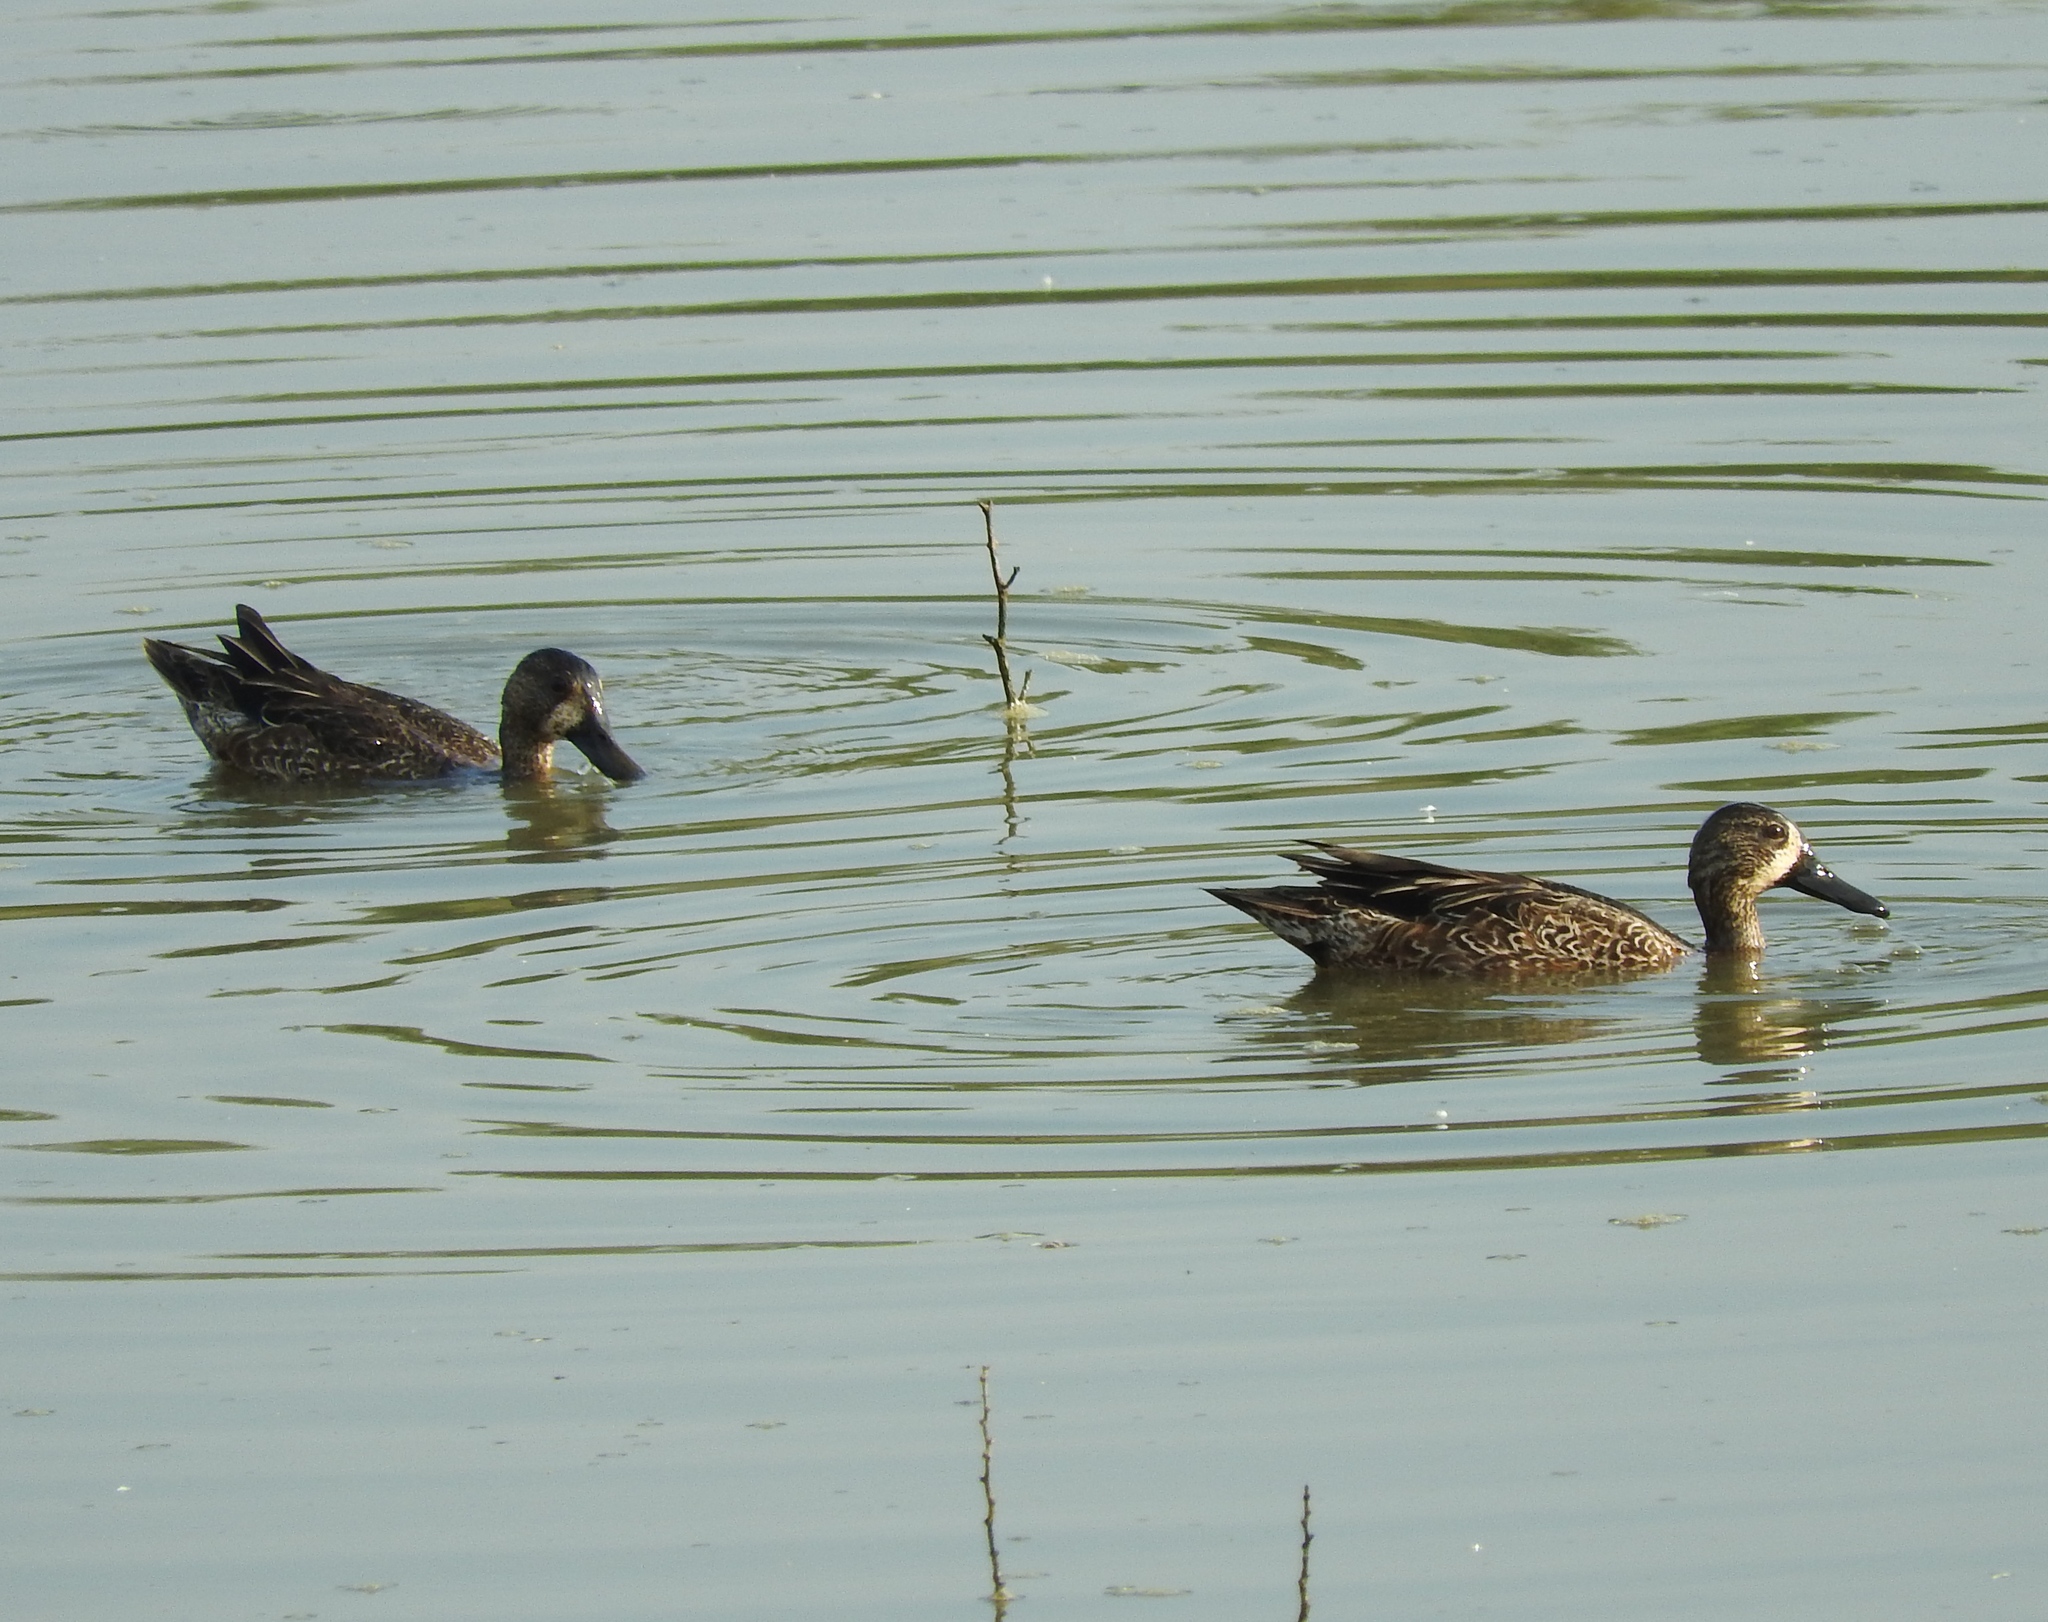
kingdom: Animalia
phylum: Chordata
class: Aves
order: Anseriformes
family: Anatidae
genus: Spatula
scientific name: Spatula discors
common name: Blue-winged teal
